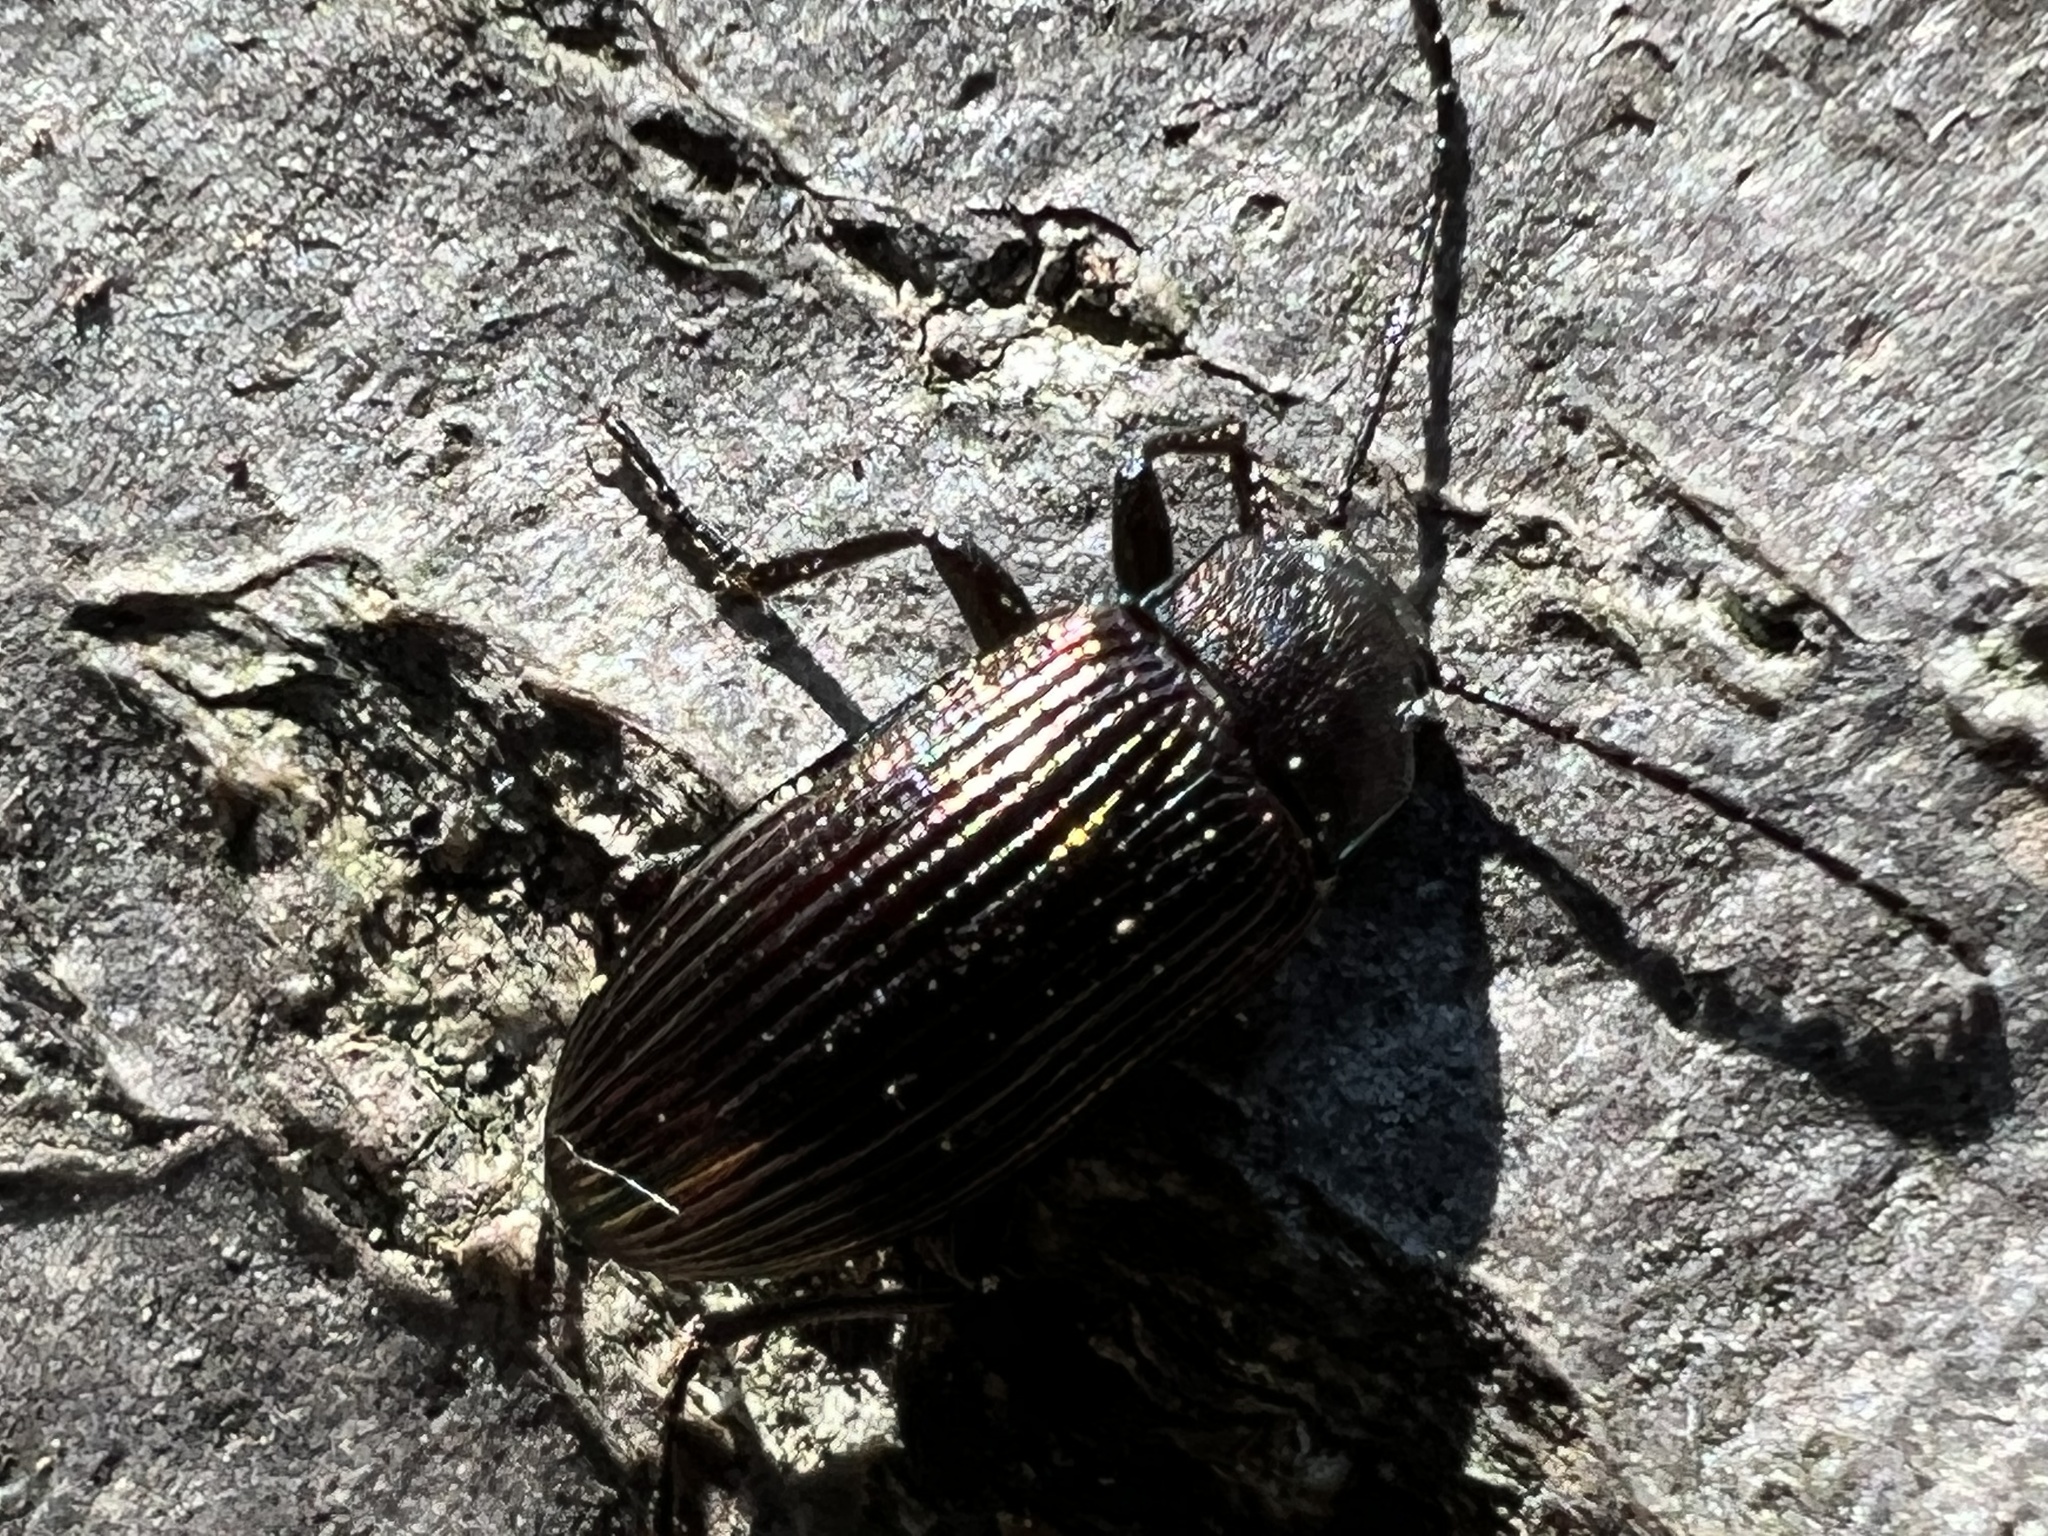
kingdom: Animalia
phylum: Arthropoda
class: Insecta
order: Coleoptera
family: Tenebrionidae
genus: Tarpela
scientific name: Tarpela venusta
